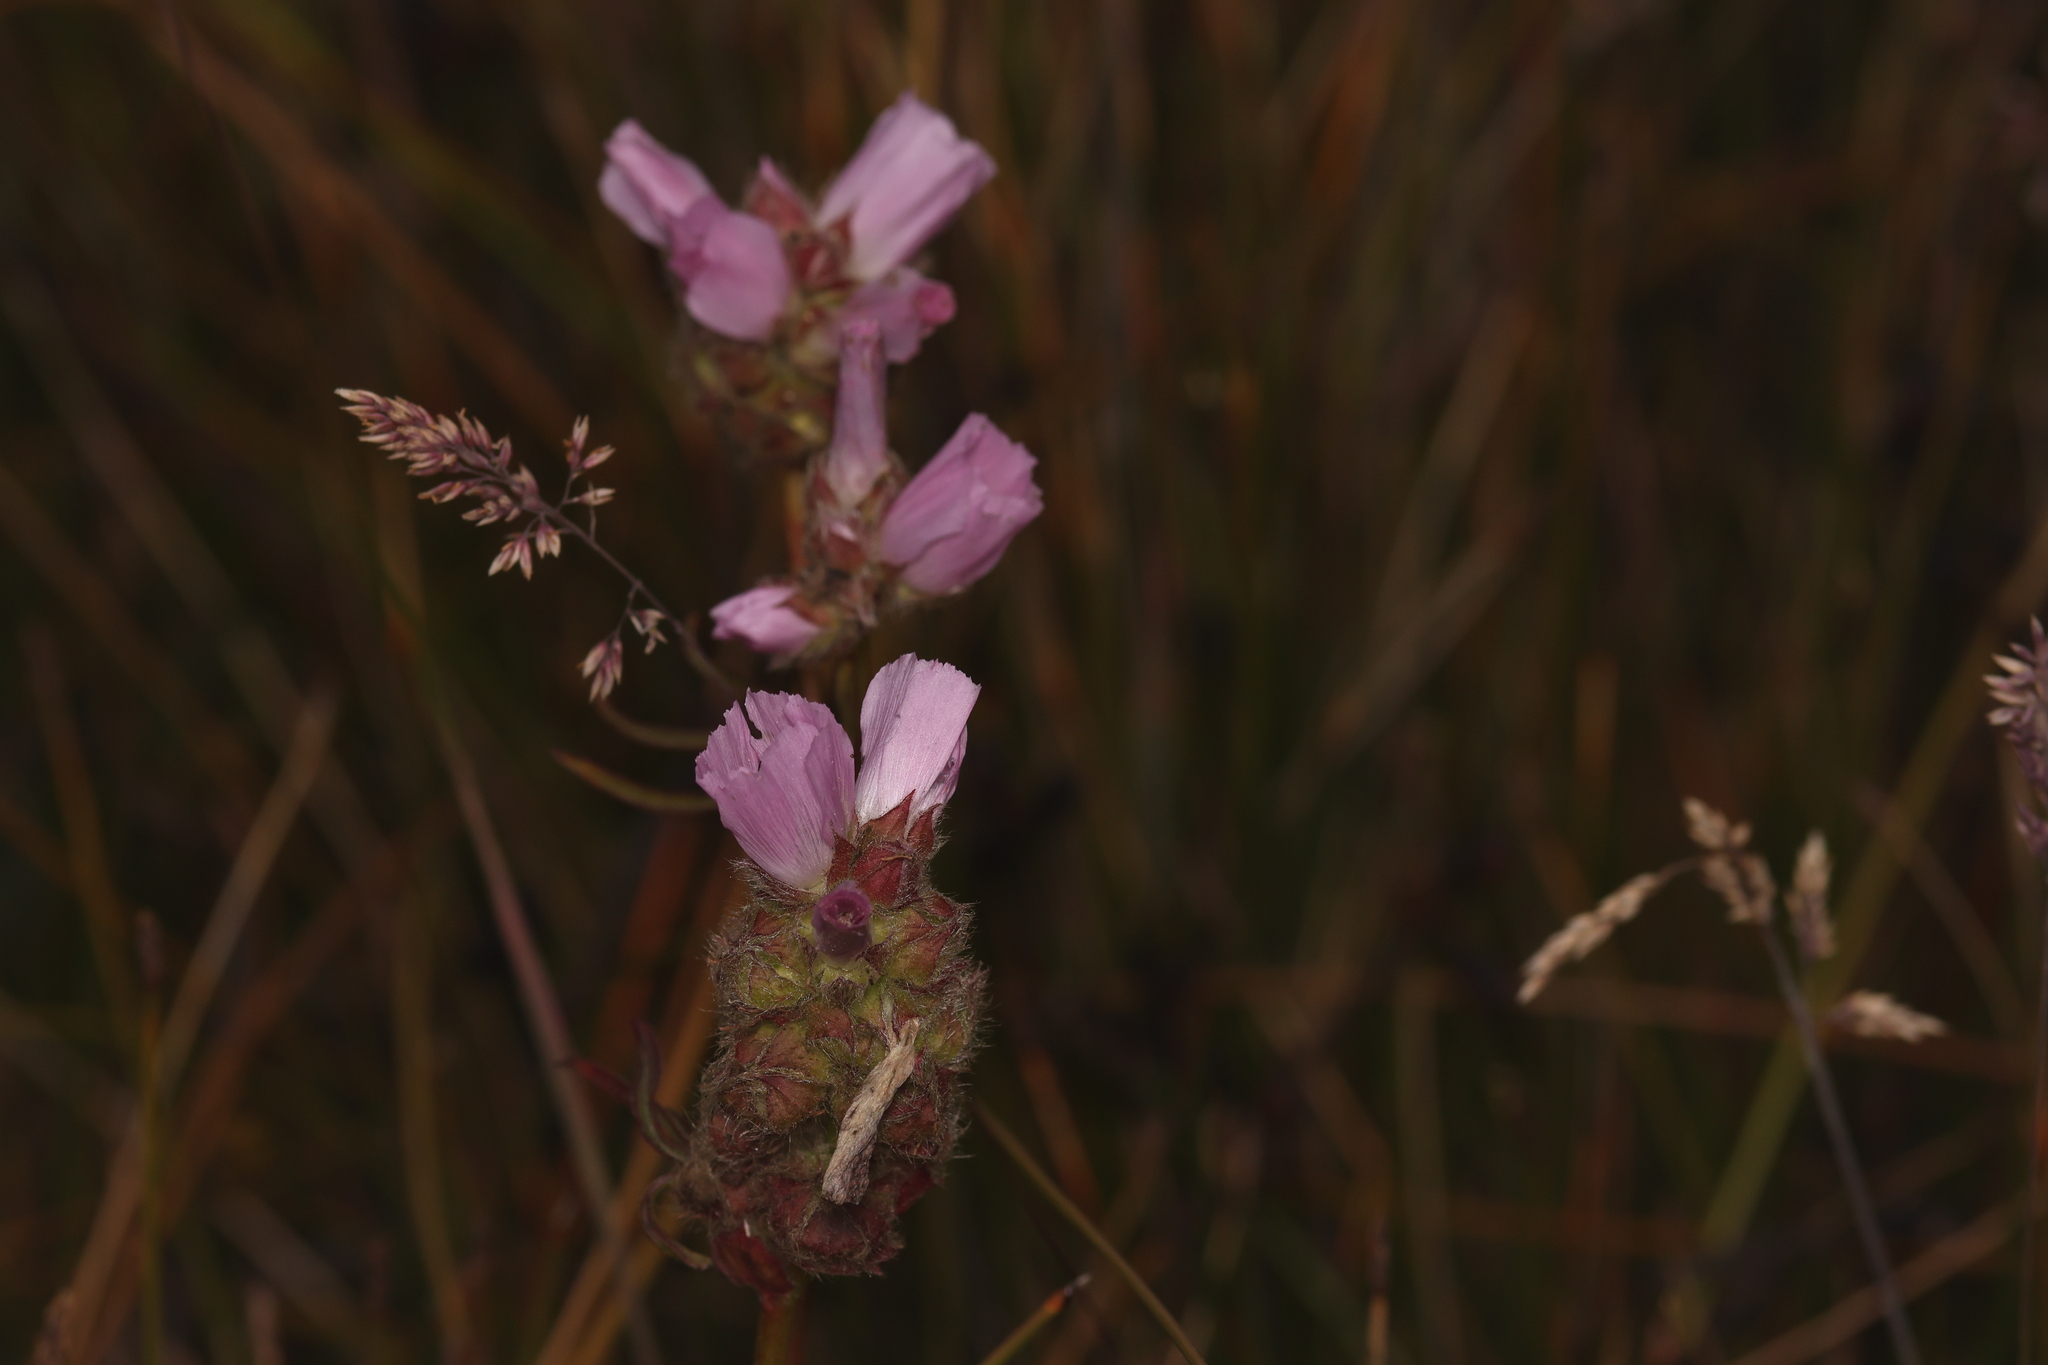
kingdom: Plantae
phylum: Tracheophyta
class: Magnoliopsida
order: Malvales
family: Malvaceae
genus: Sidalcea
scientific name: Sidalcea calycosa
